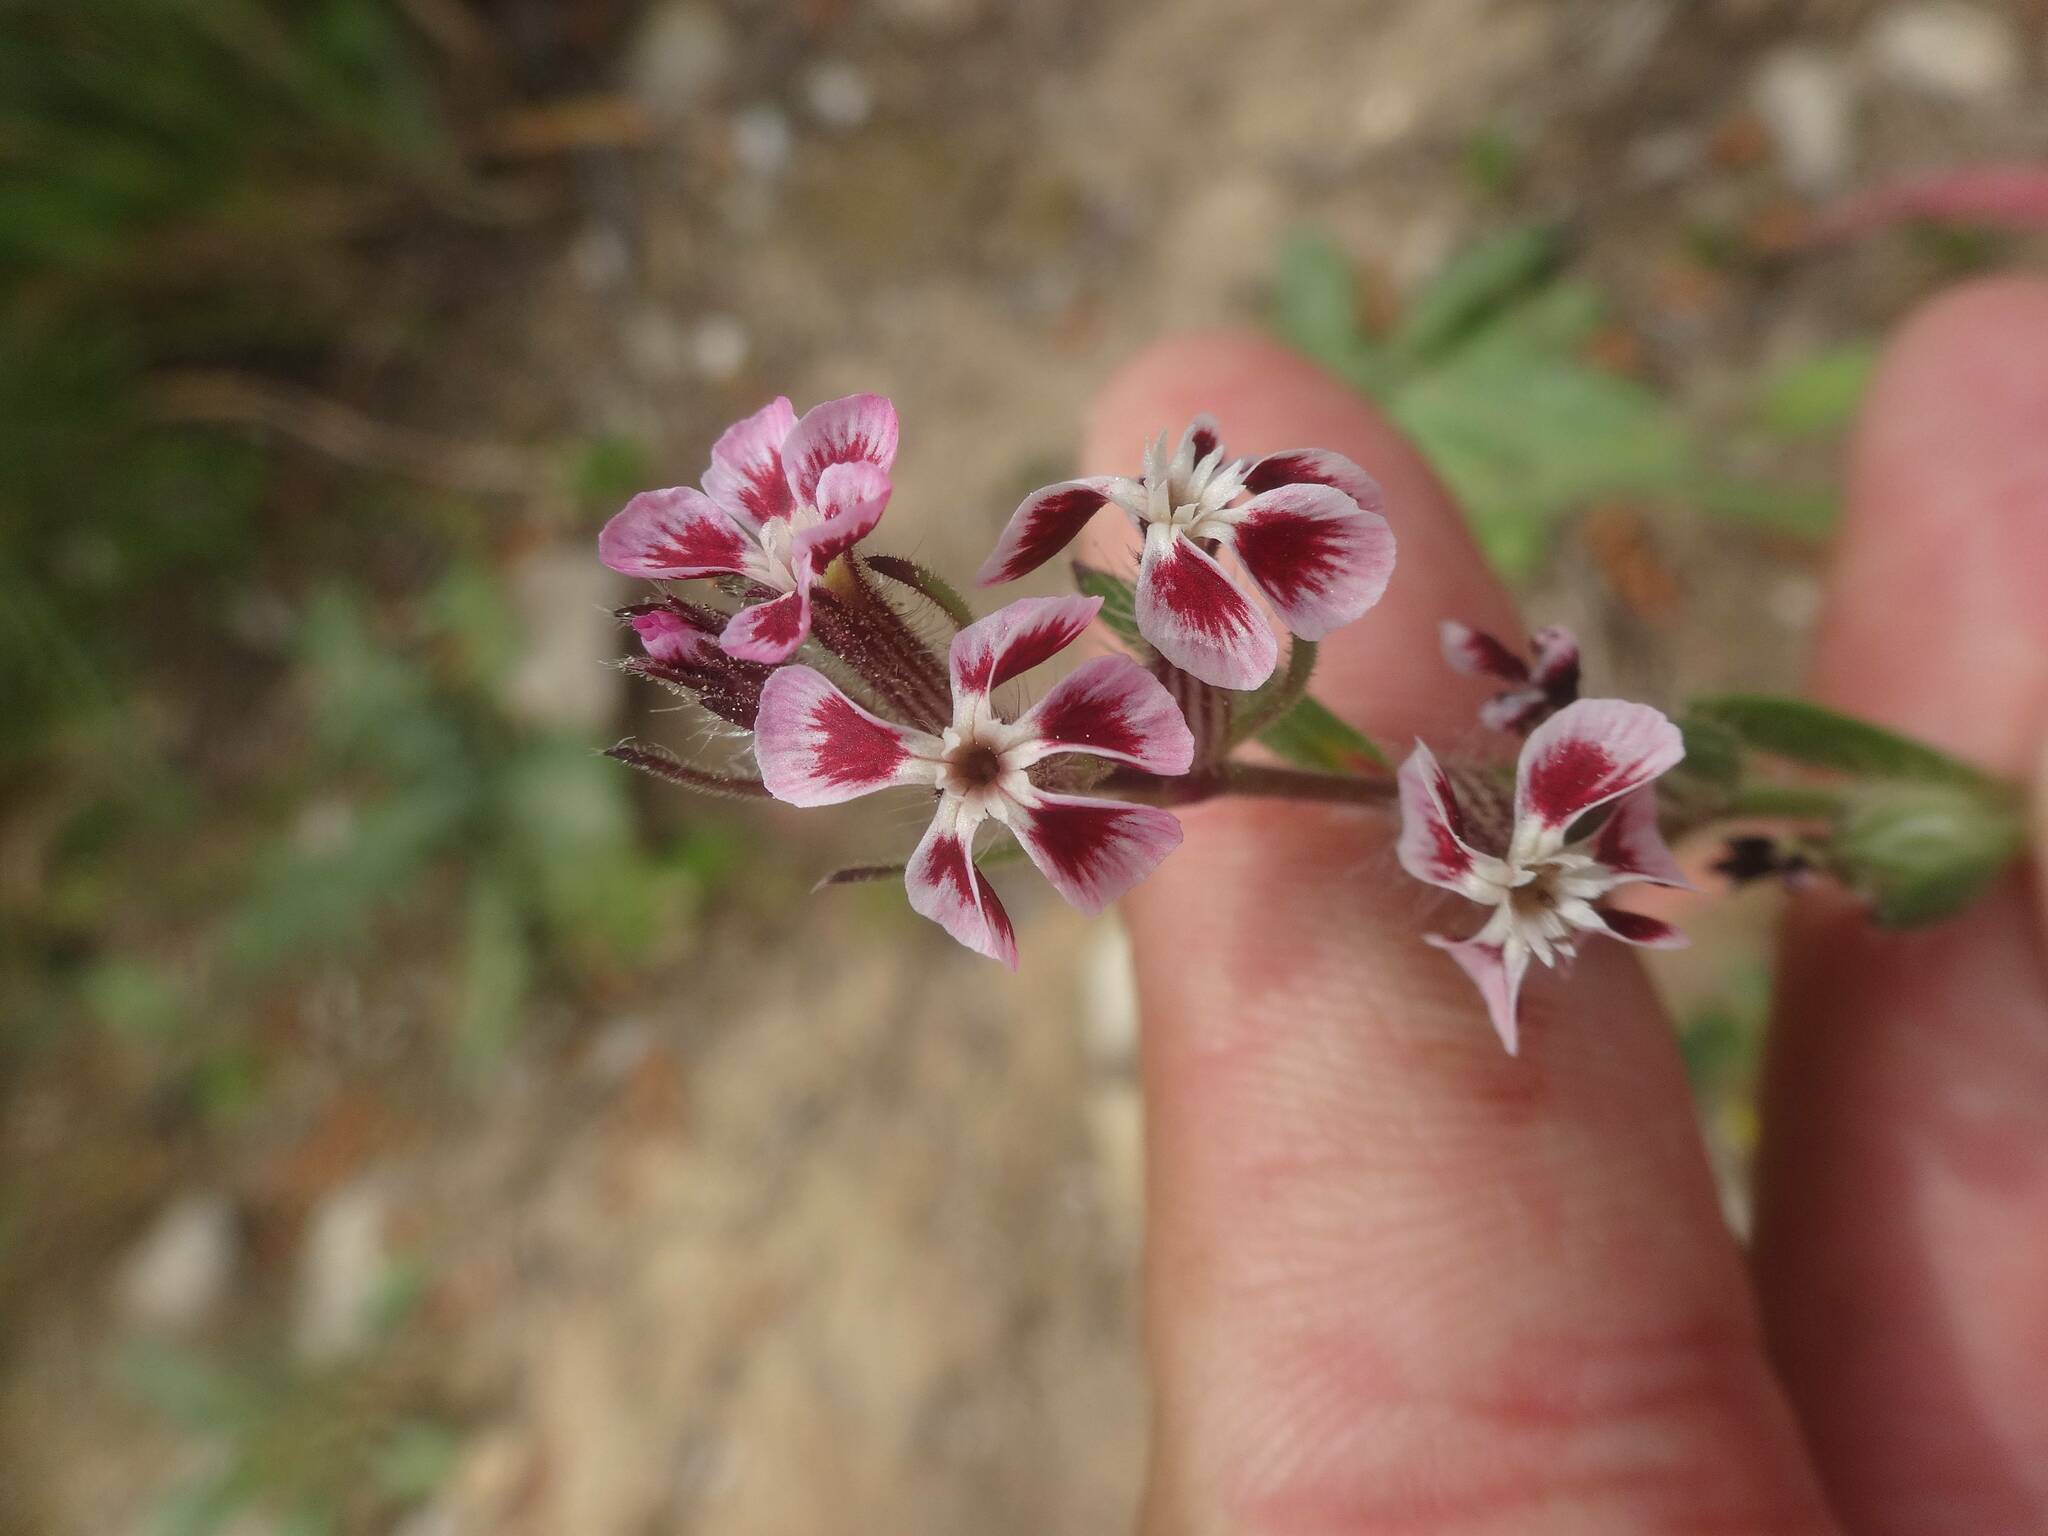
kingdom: Plantae
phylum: Tracheophyta
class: Magnoliopsida
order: Caryophyllales
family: Caryophyllaceae
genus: Silene
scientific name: Silene gallica
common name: Small-flowered catchfly
